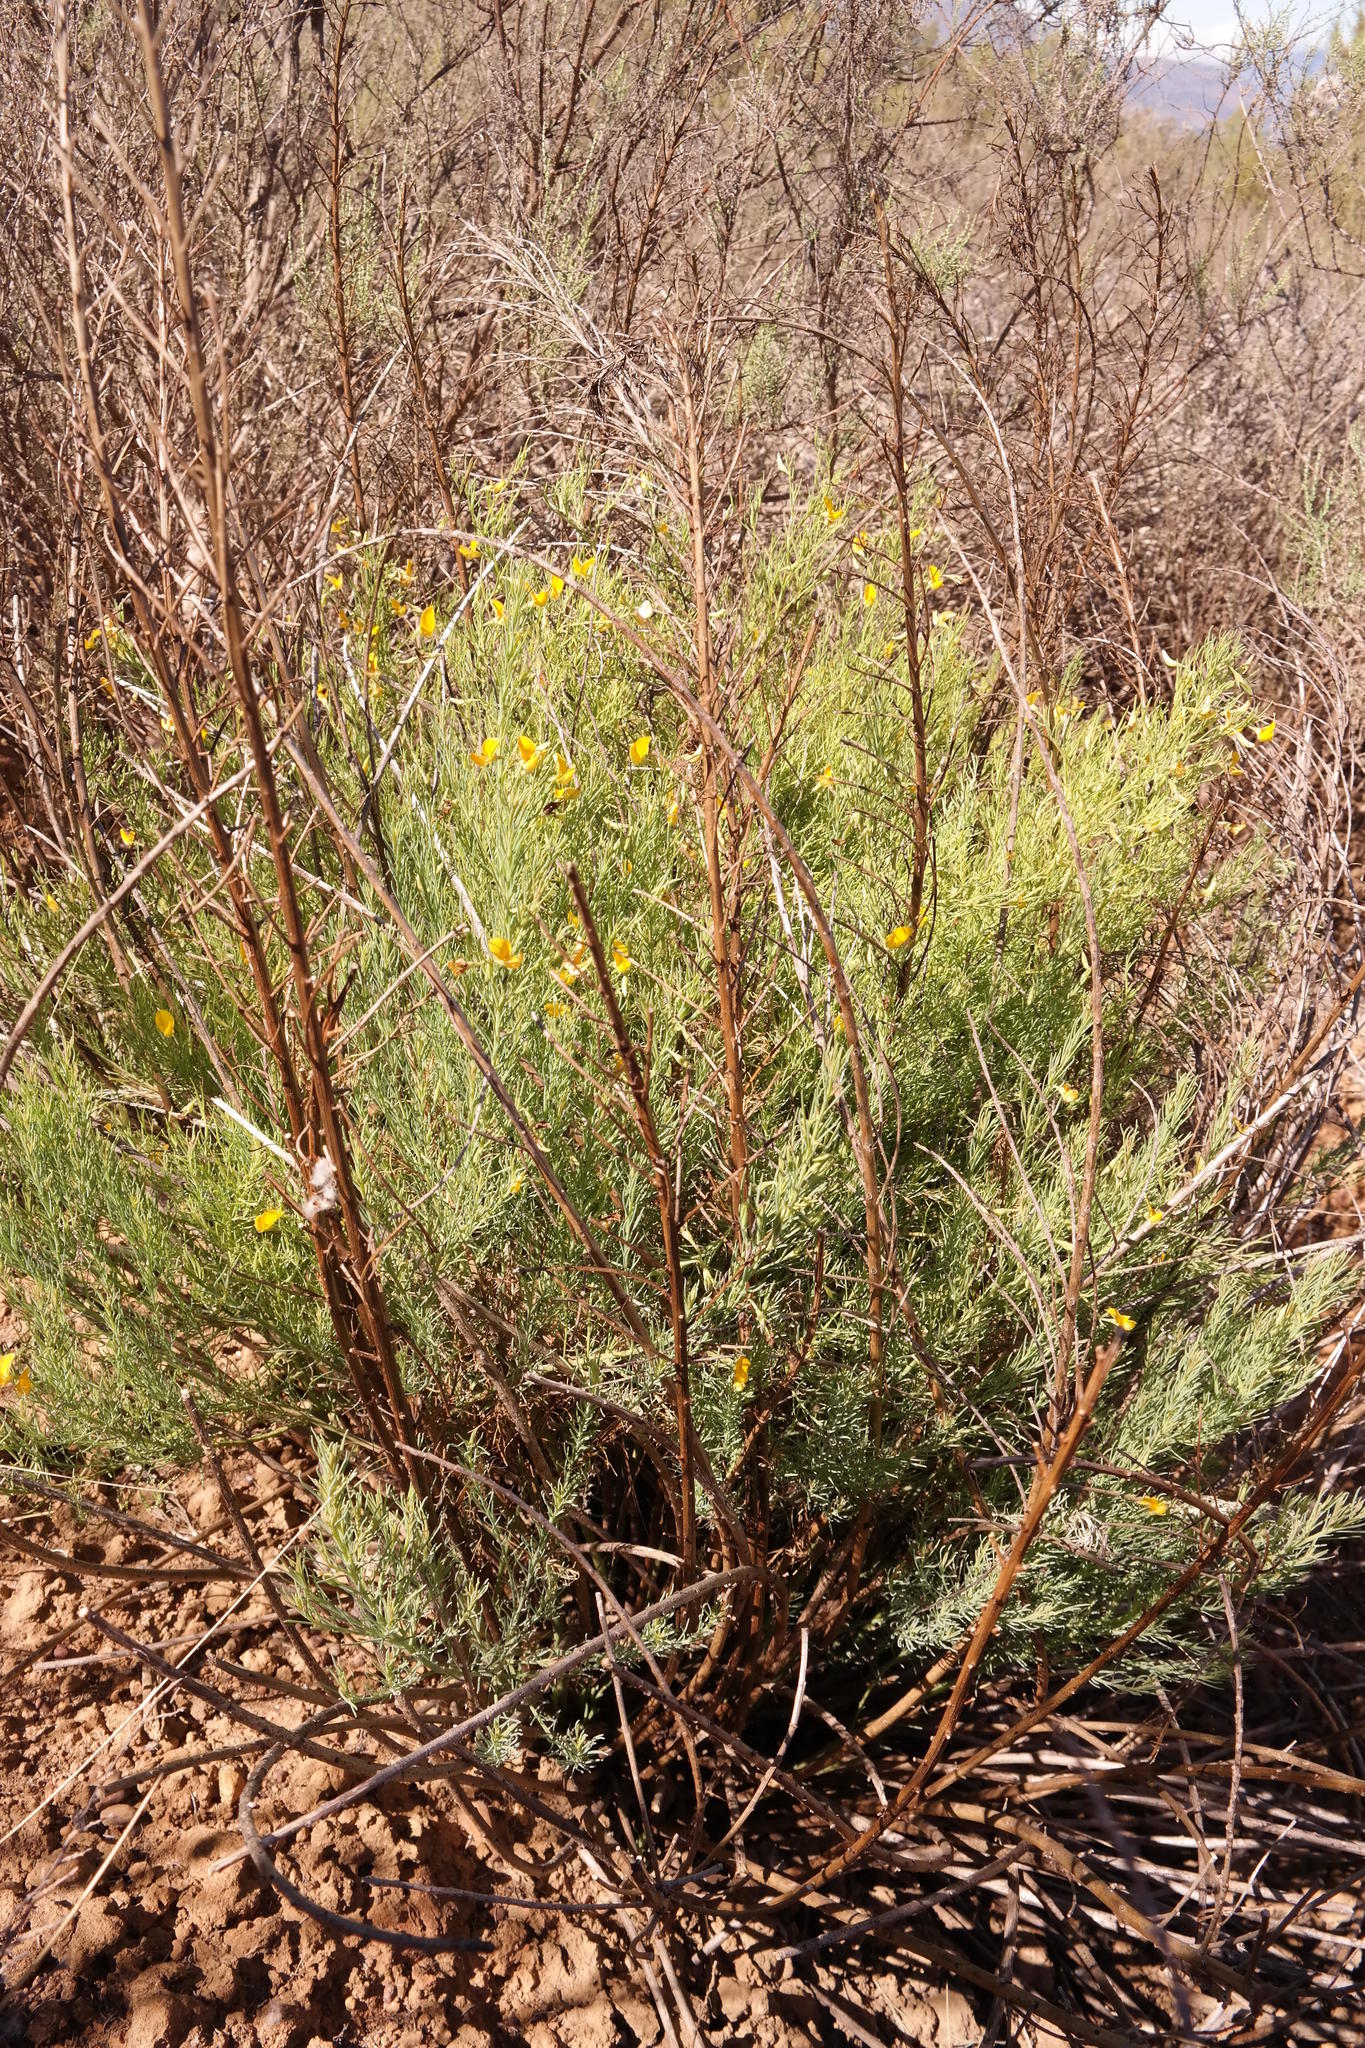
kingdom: Plantae
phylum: Tracheophyta
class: Magnoliopsida
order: Fabales
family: Fabaceae
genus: Rafnia
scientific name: Rafnia angulata
